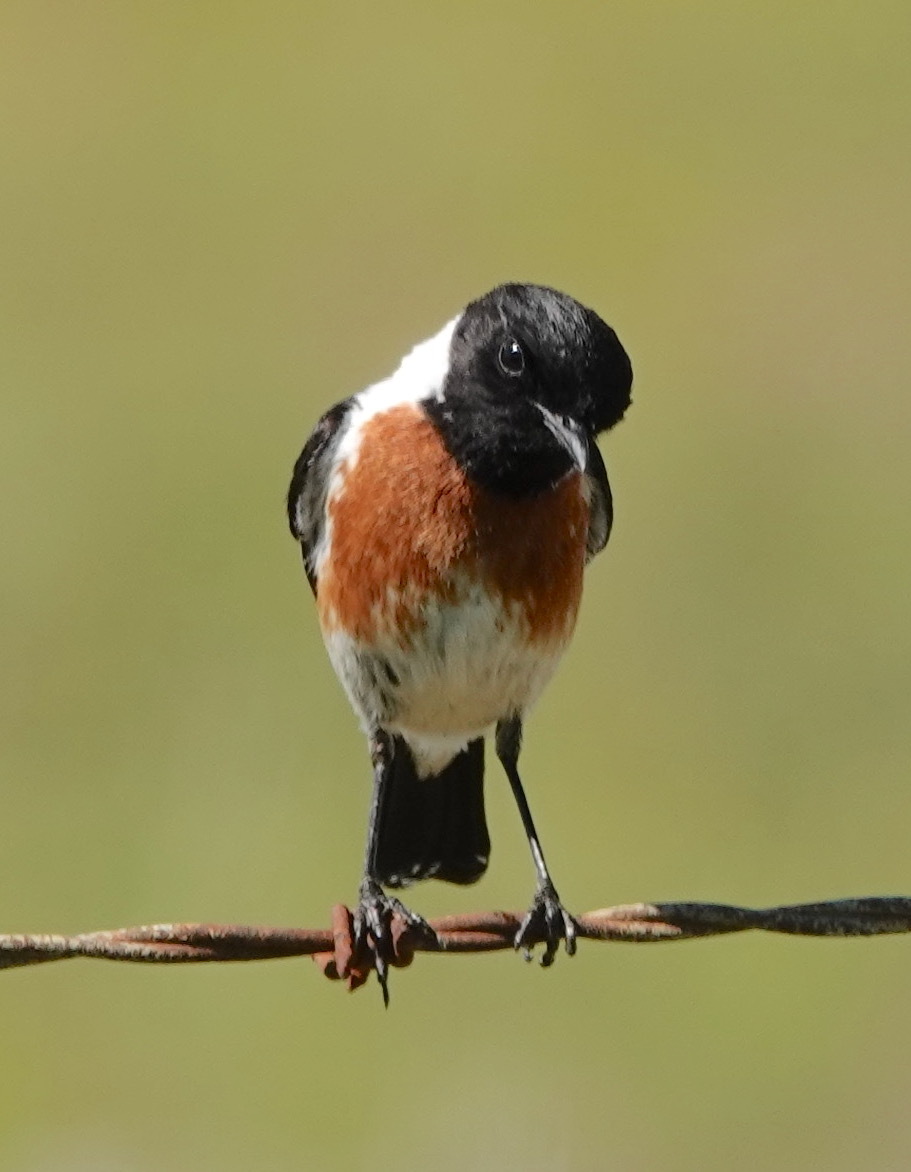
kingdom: Animalia
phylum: Chordata
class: Aves
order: Passeriformes
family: Muscicapidae
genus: Saxicola
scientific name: Saxicola torquatus
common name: African stonechat
